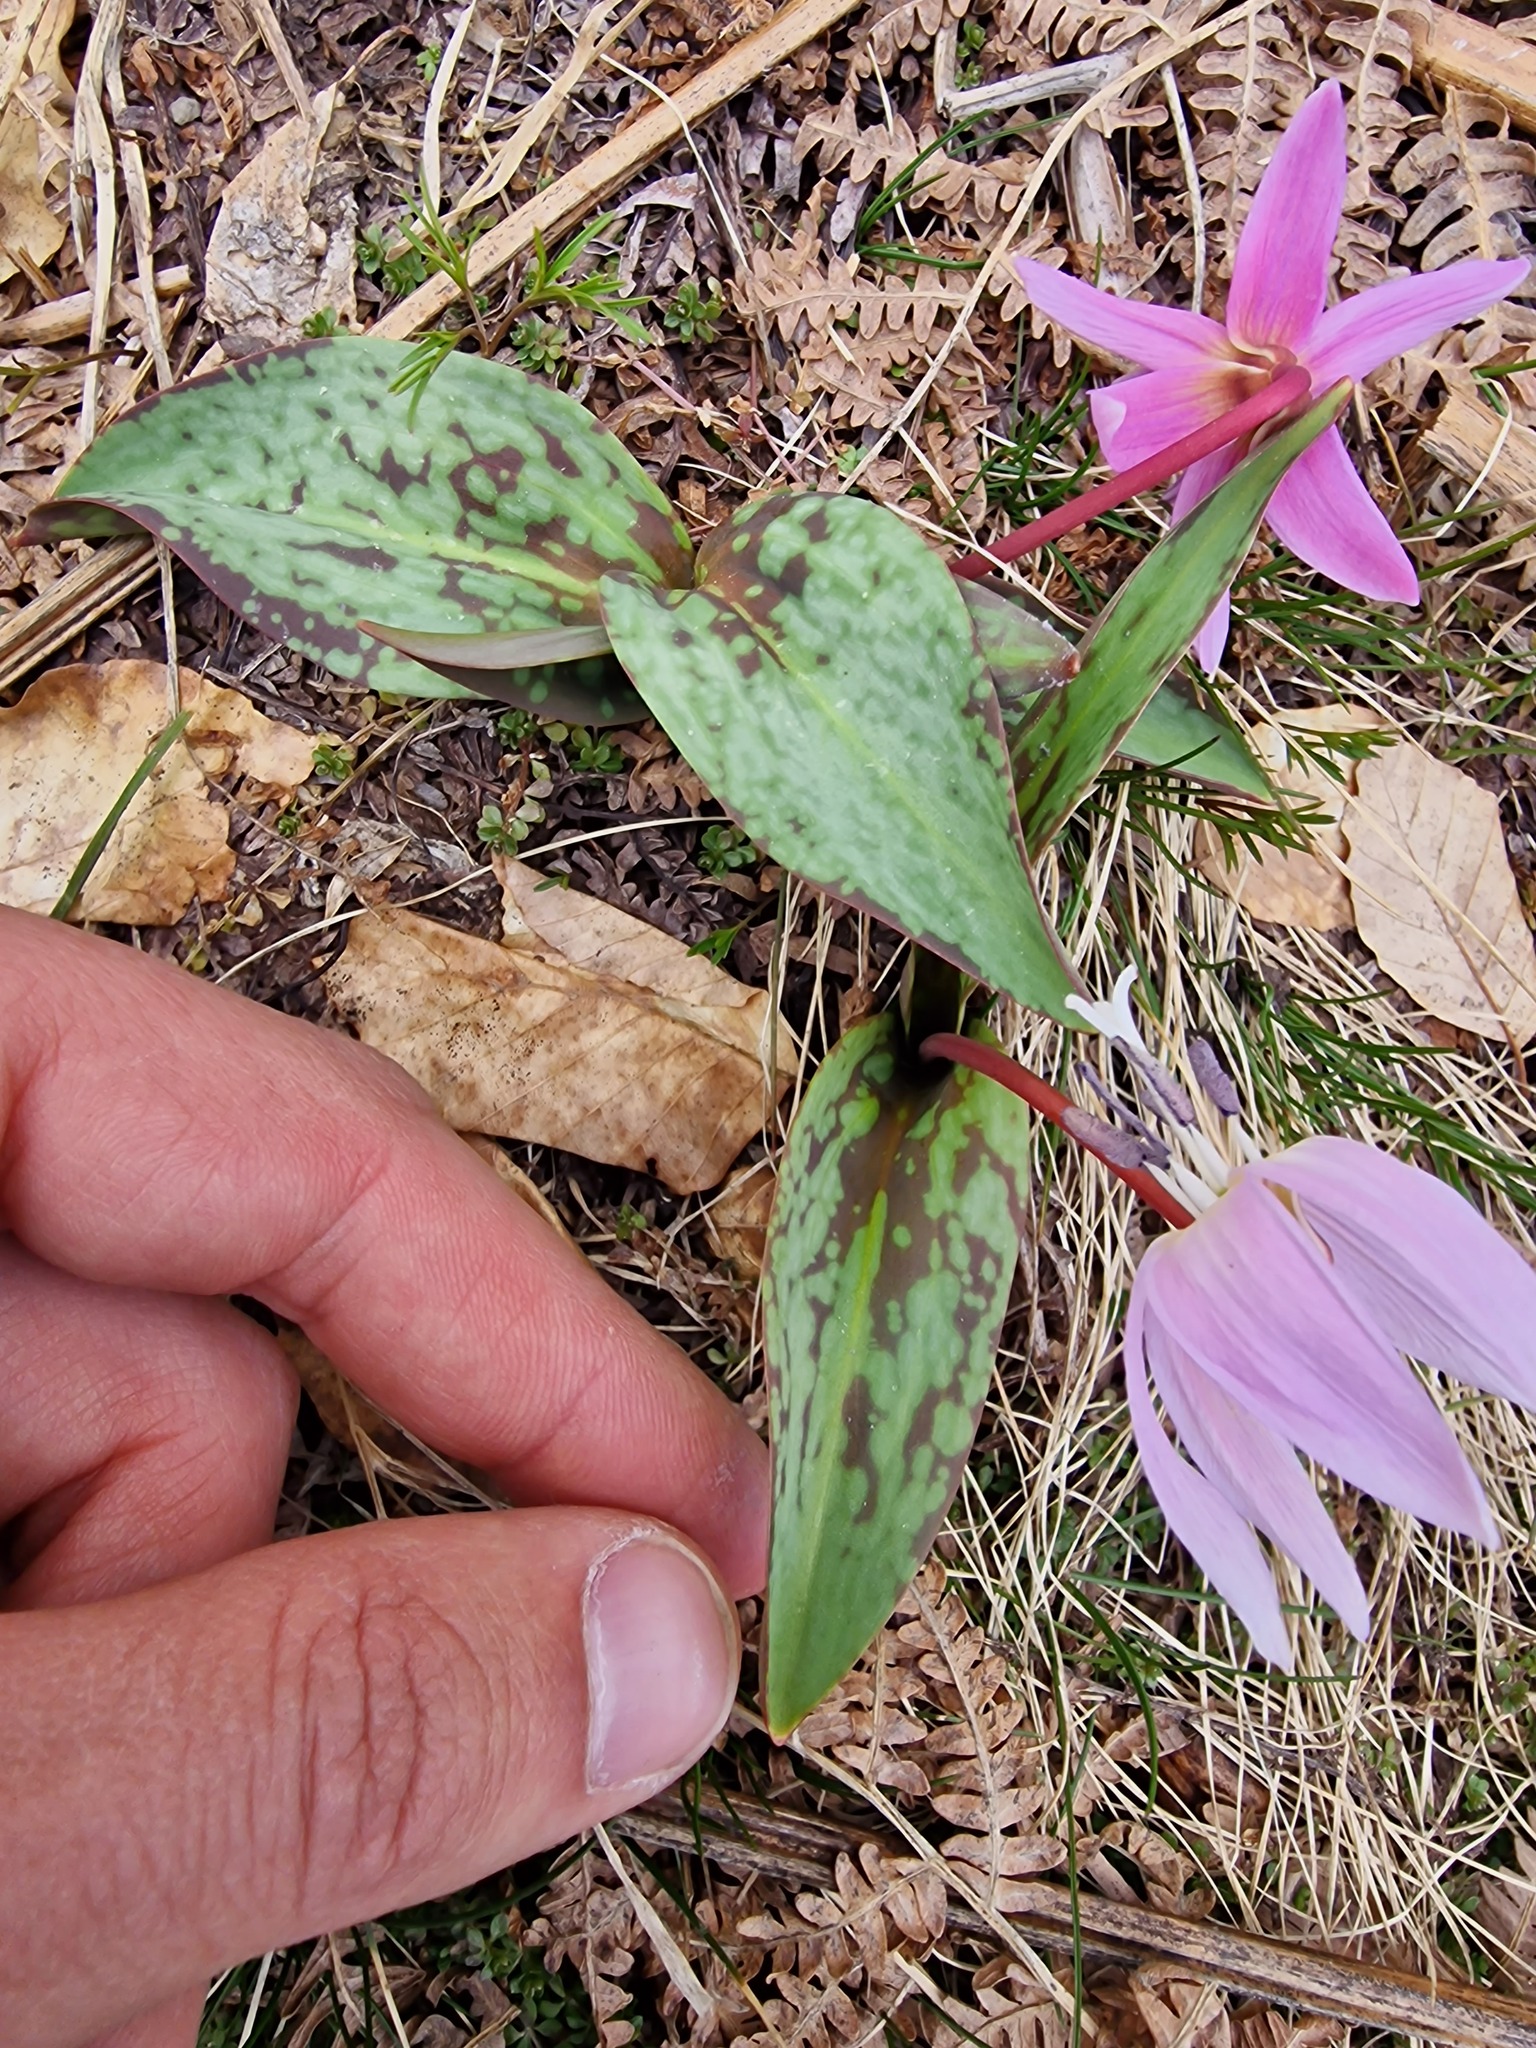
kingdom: Plantae
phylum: Tracheophyta
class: Liliopsida
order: Liliales
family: Liliaceae
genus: Erythronium
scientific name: Erythronium dens-canis
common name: Dog's-tooth-violet
